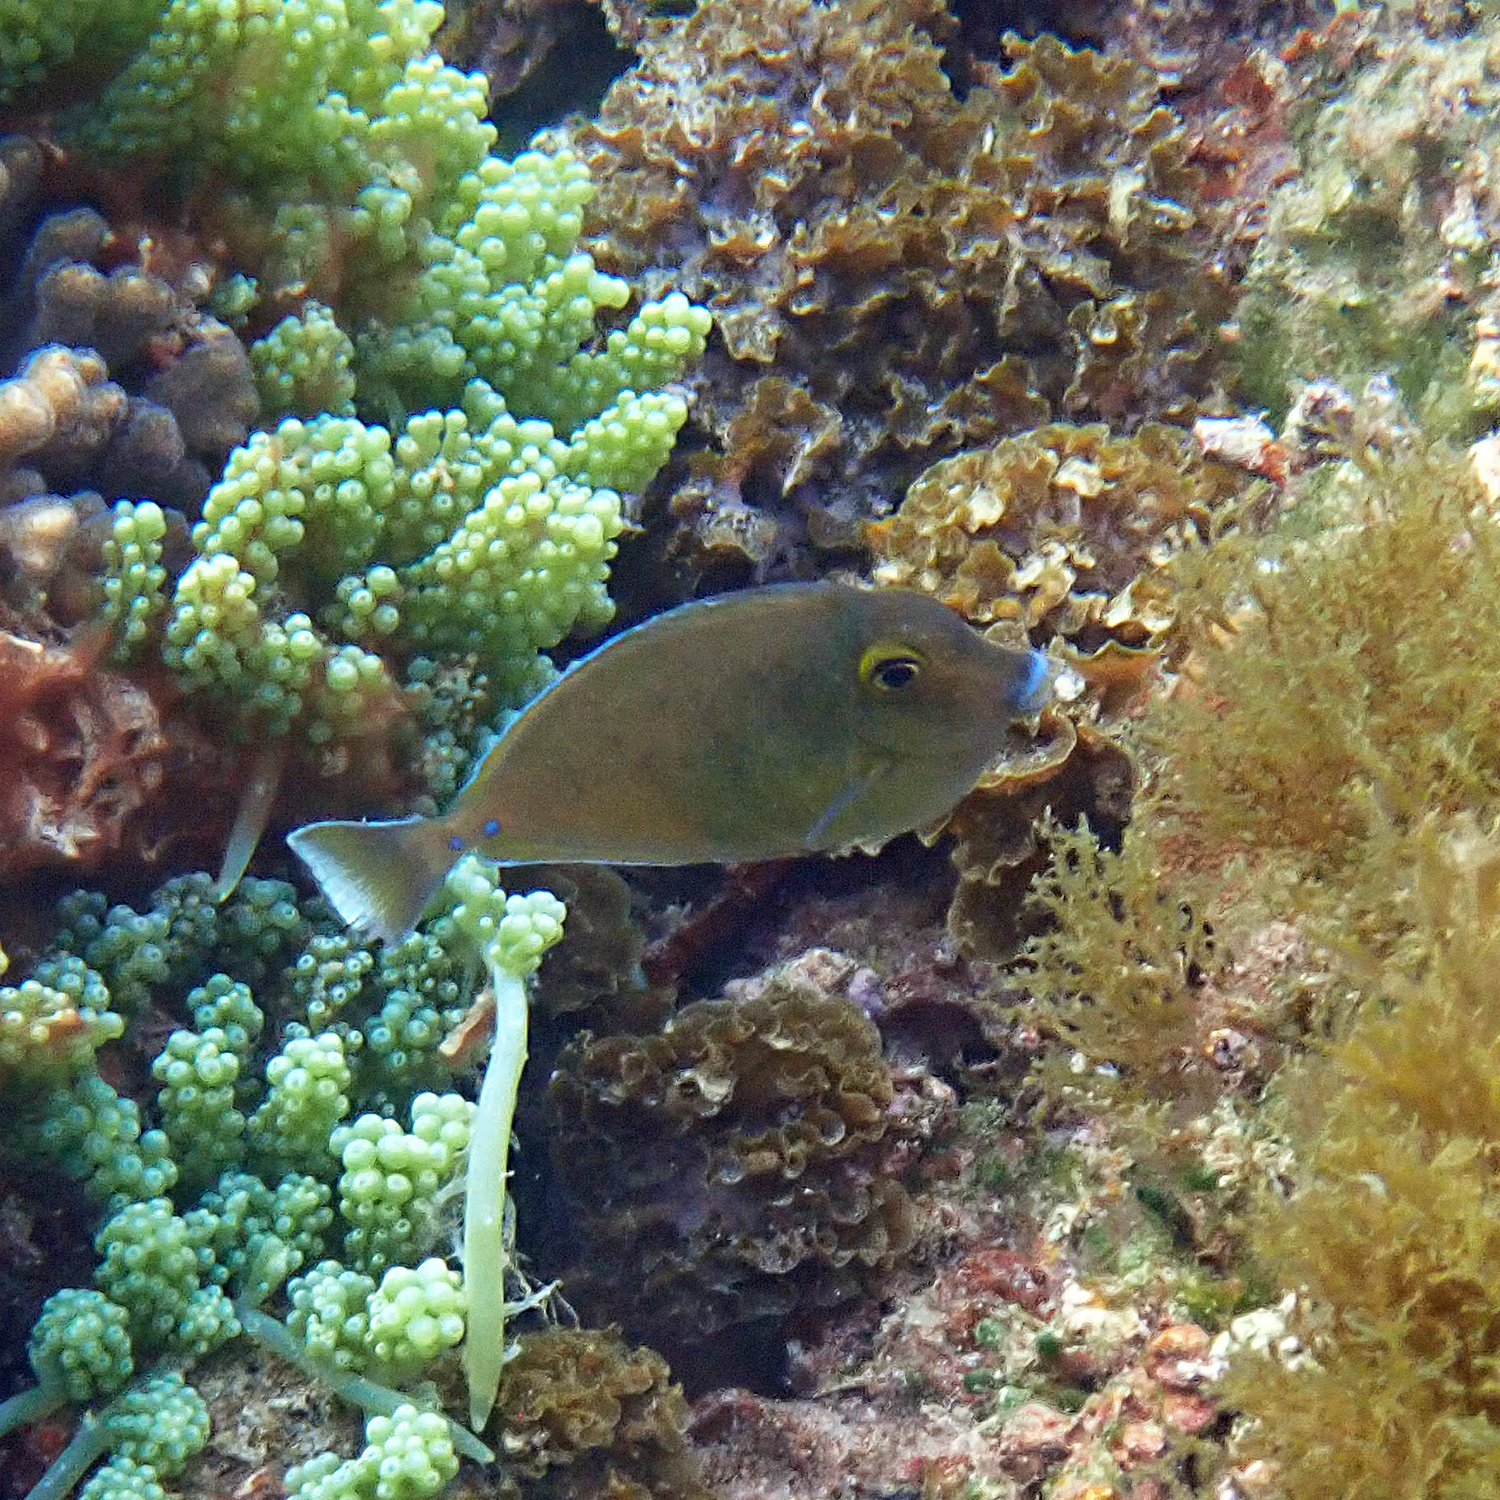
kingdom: Animalia
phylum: Chordata
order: Perciformes
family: Acanthuridae
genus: Naso
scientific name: Naso unicornis
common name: Bluespine unicornfish
